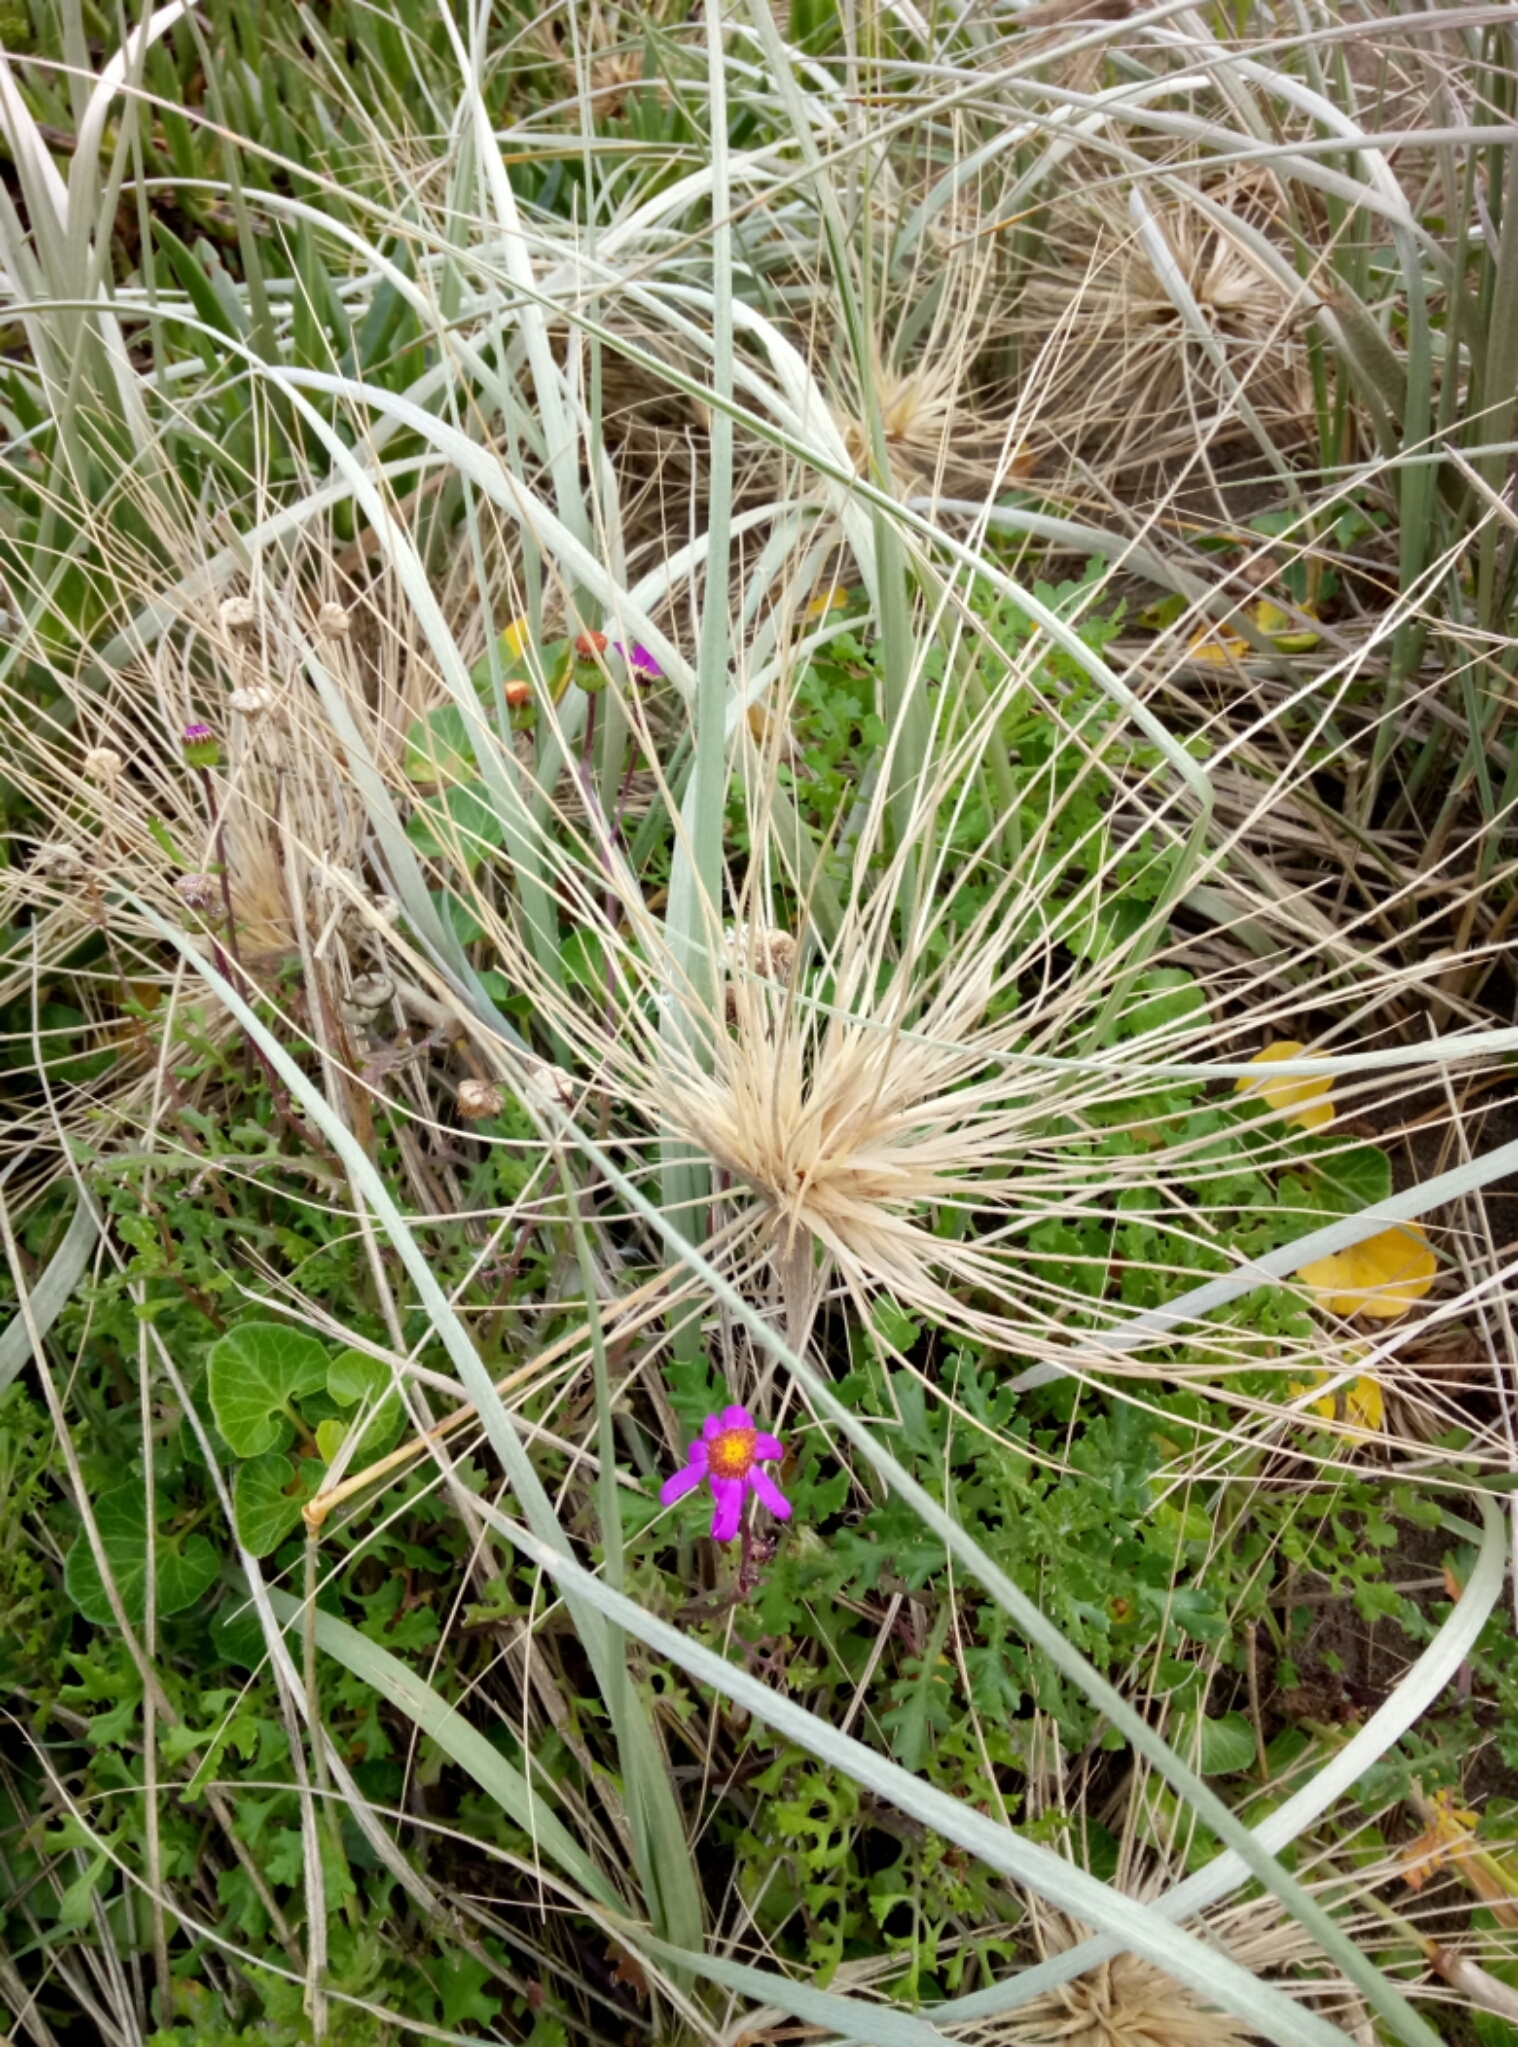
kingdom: Plantae
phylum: Tracheophyta
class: Liliopsida
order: Poales
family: Poaceae
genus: Spinifex
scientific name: Spinifex sericeus
